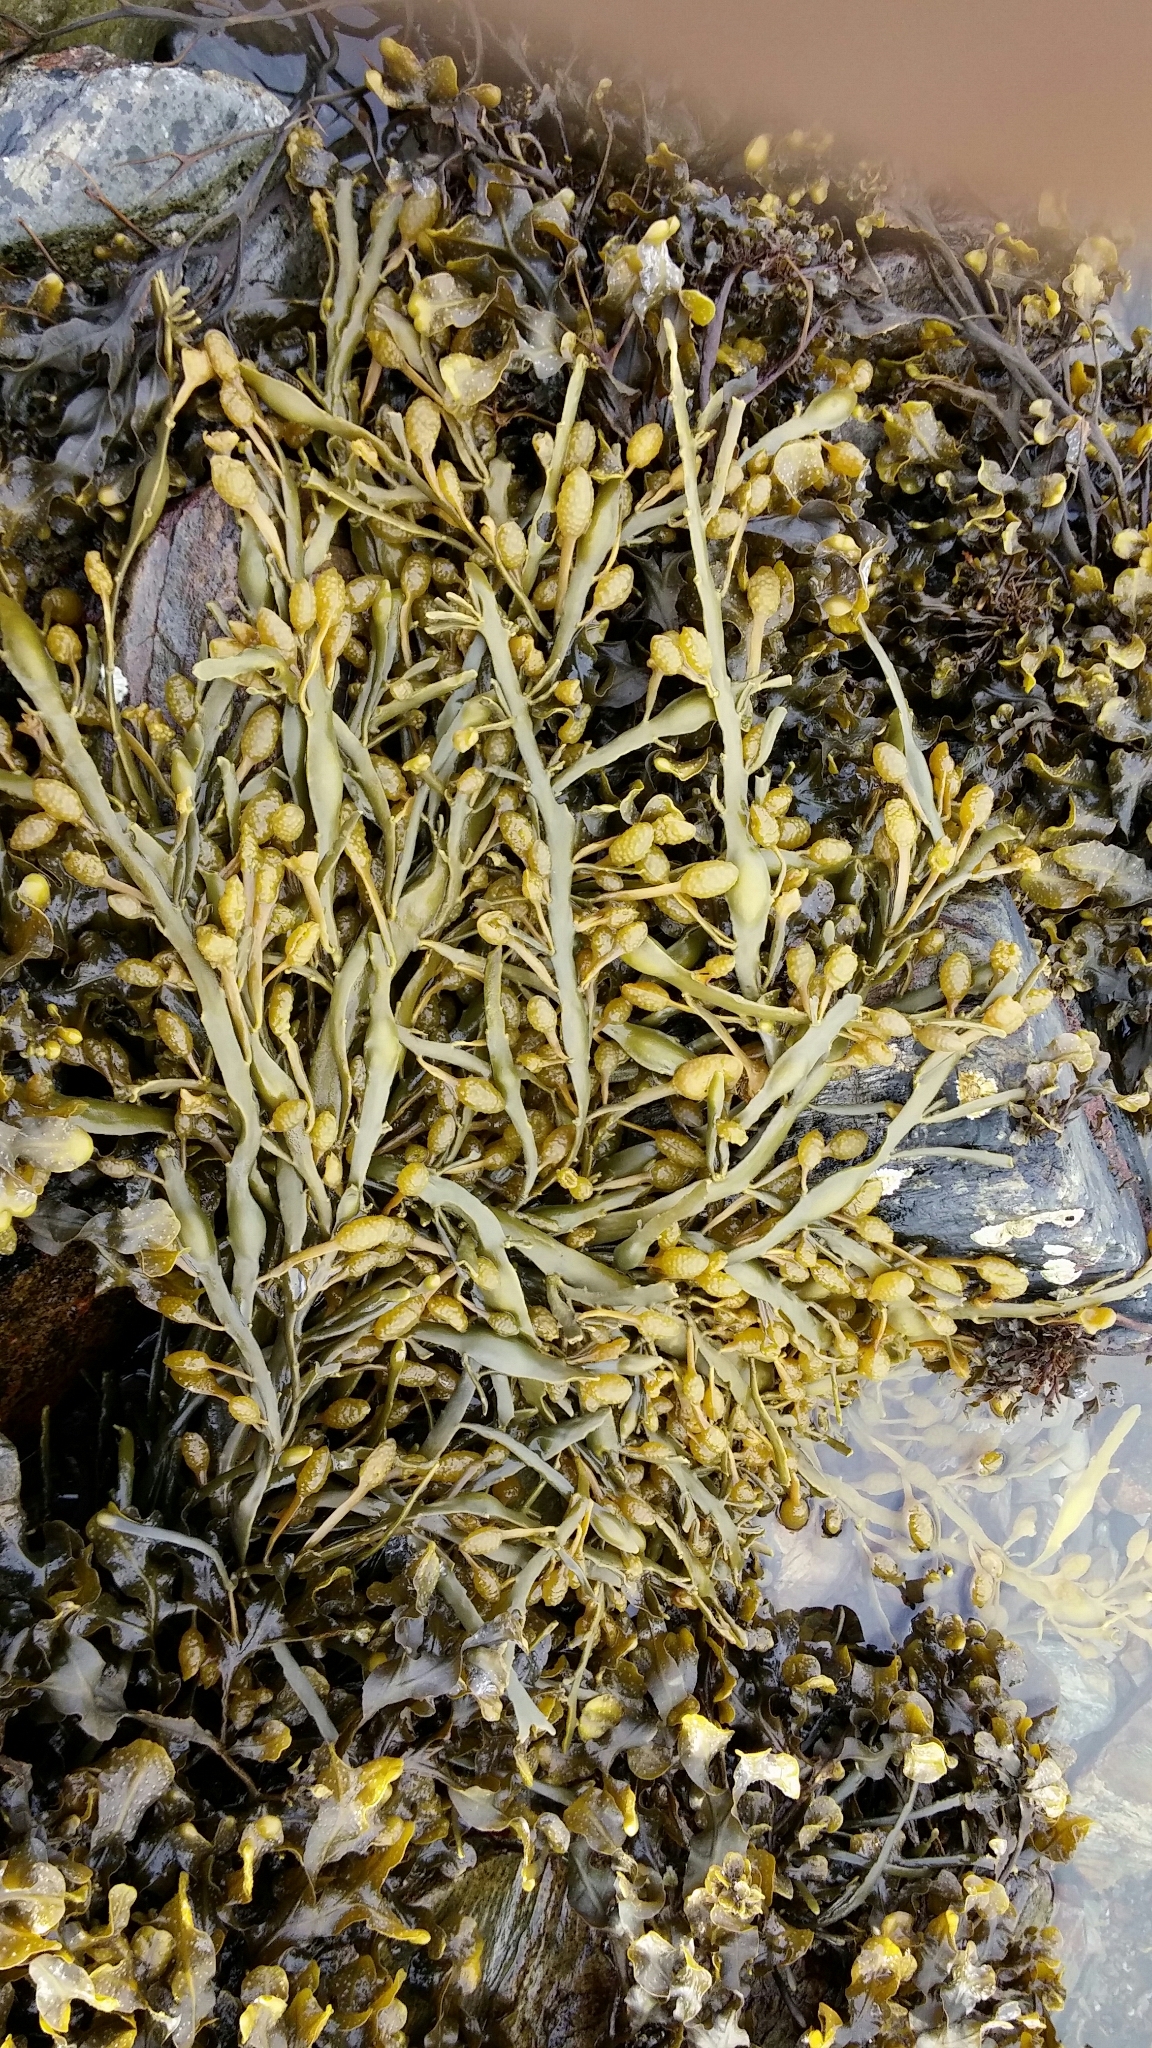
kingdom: Chromista
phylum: Ochrophyta
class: Phaeophyceae
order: Fucales
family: Fucaceae
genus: Ascophyllum
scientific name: Ascophyllum nodosum
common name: Knotted wrack
